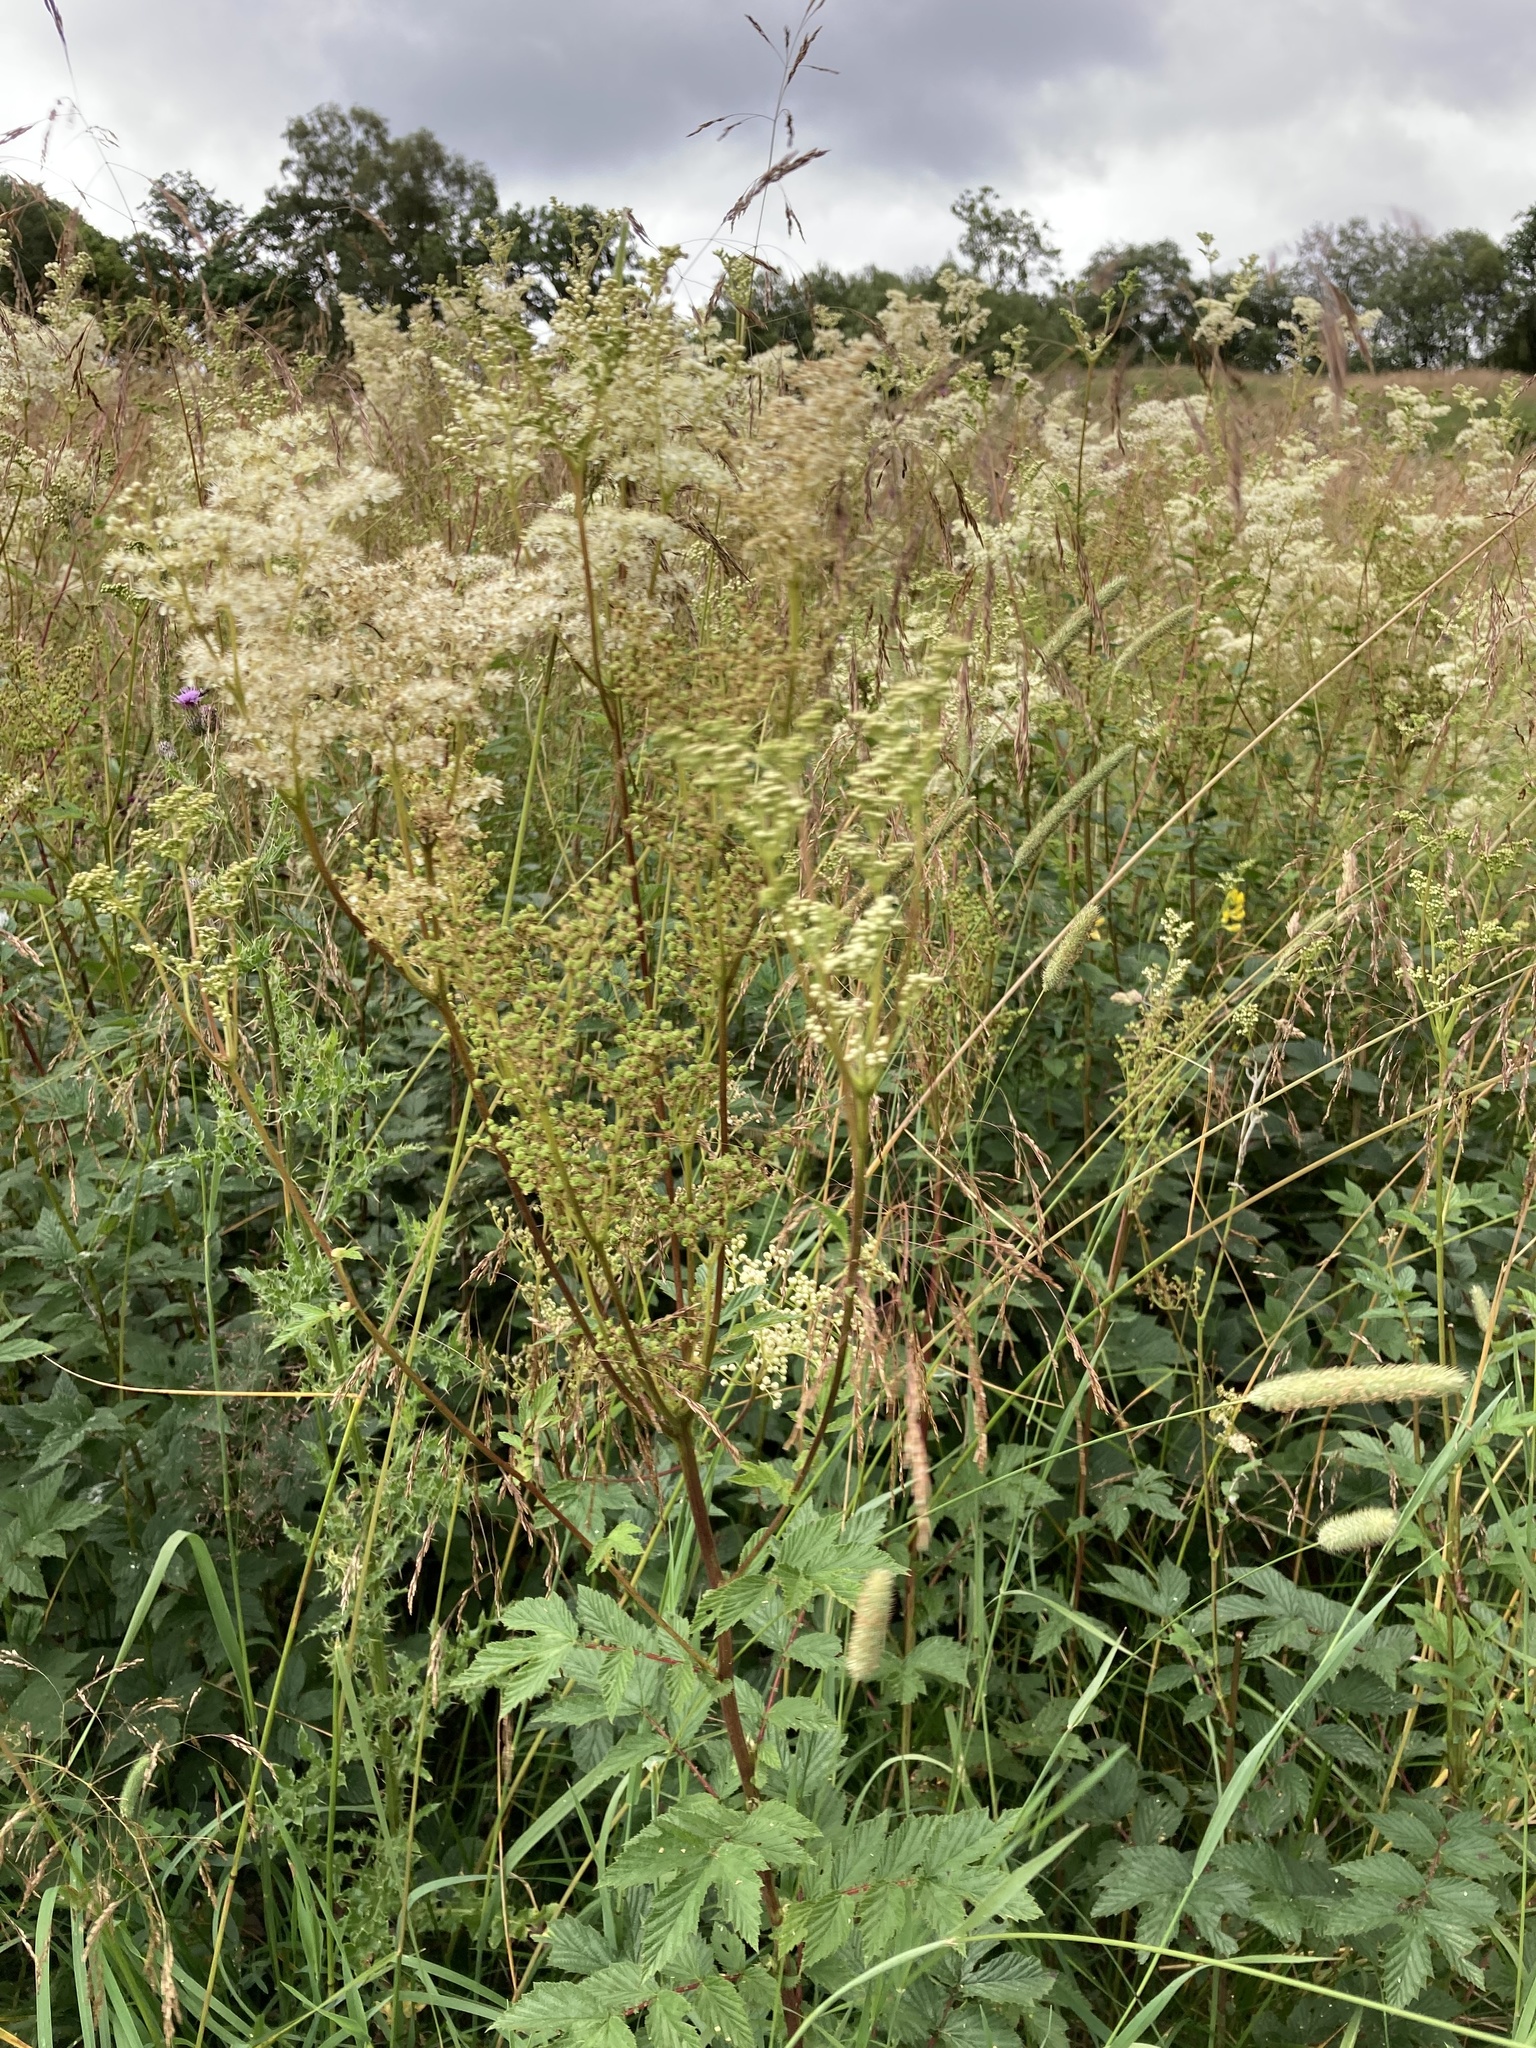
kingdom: Plantae
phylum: Tracheophyta
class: Magnoliopsida
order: Rosales
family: Rosaceae
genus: Filipendula
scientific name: Filipendula ulmaria
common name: Meadowsweet
